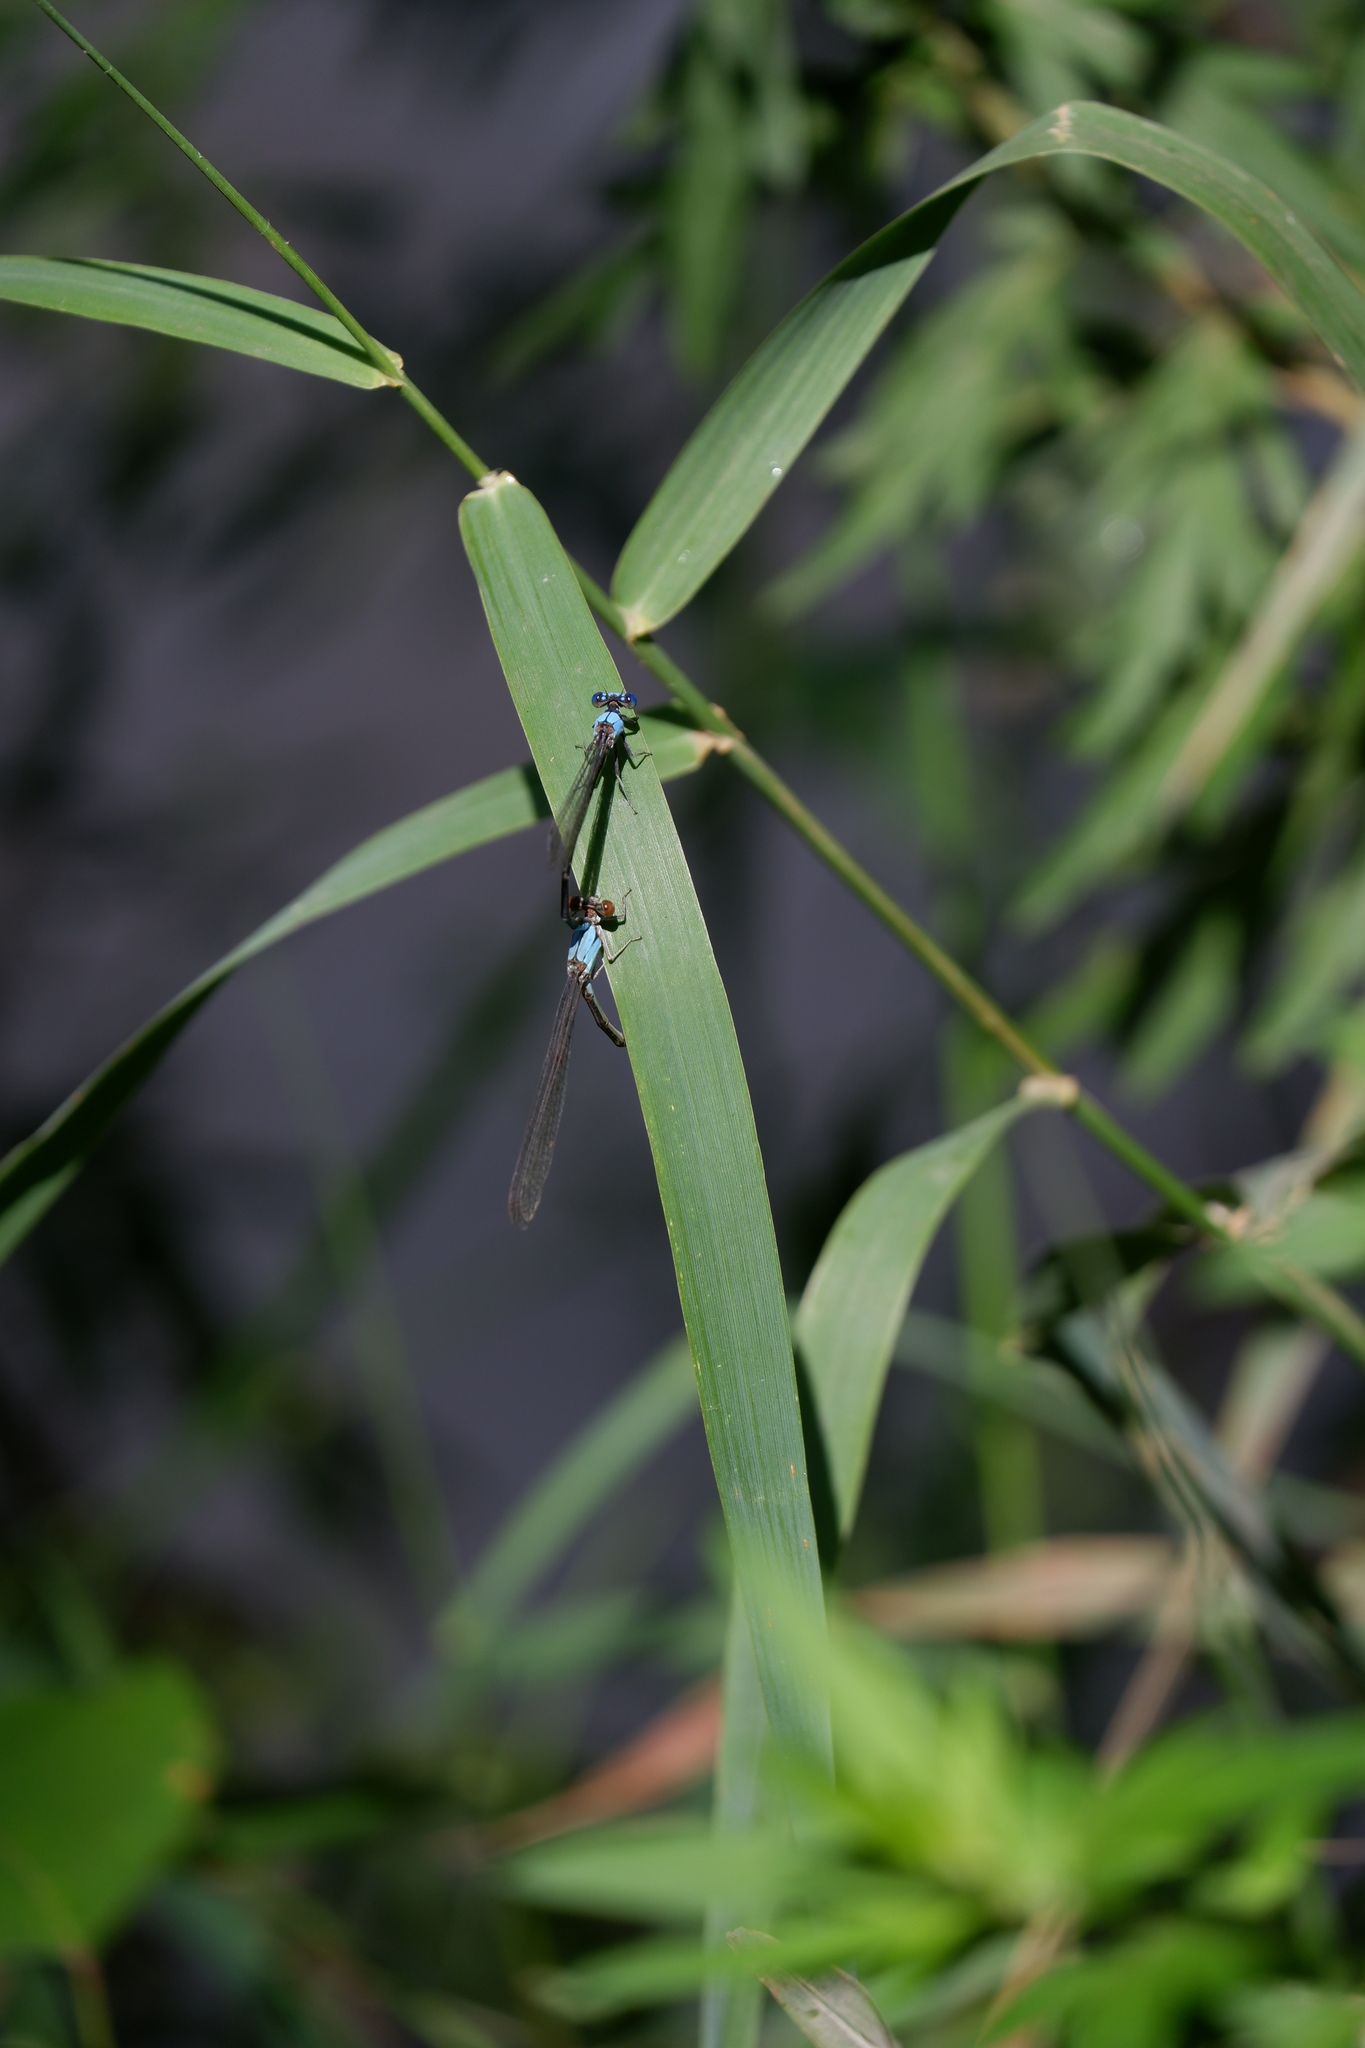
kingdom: Animalia
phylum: Arthropoda
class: Insecta
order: Odonata
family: Coenagrionidae
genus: Argia
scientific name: Argia apicalis
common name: Blue-fronted dancer
